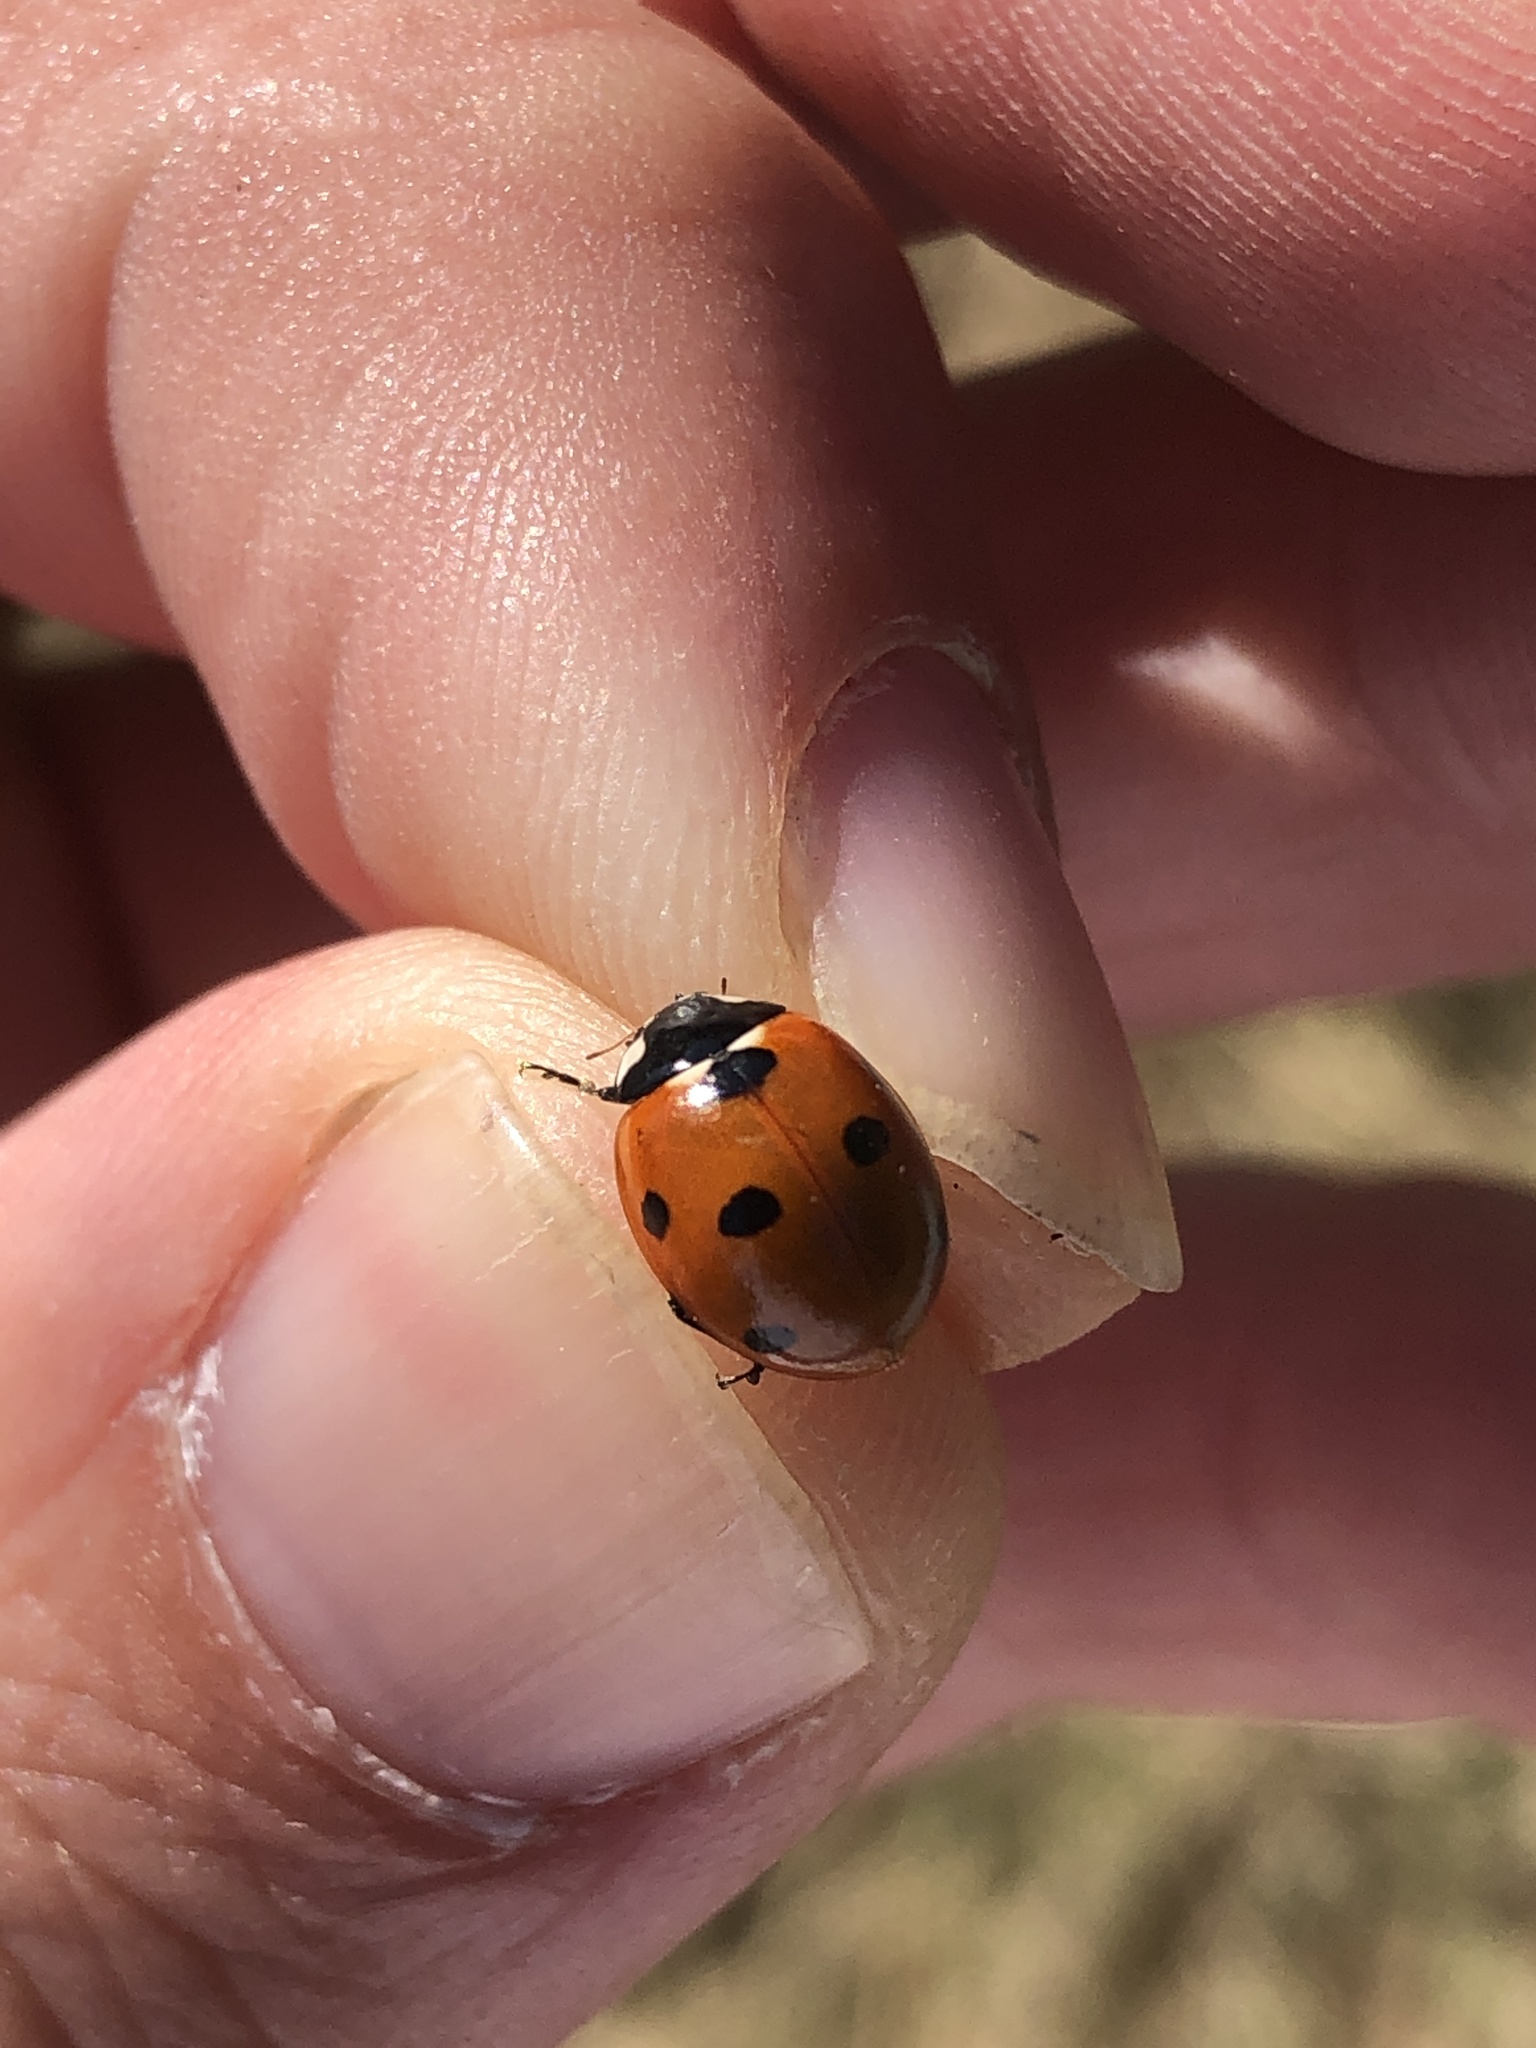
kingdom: Animalia
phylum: Arthropoda
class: Insecta
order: Coleoptera
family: Coccinellidae
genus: Coccinella
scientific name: Coccinella septempunctata
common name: Sevenspotted lady beetle
